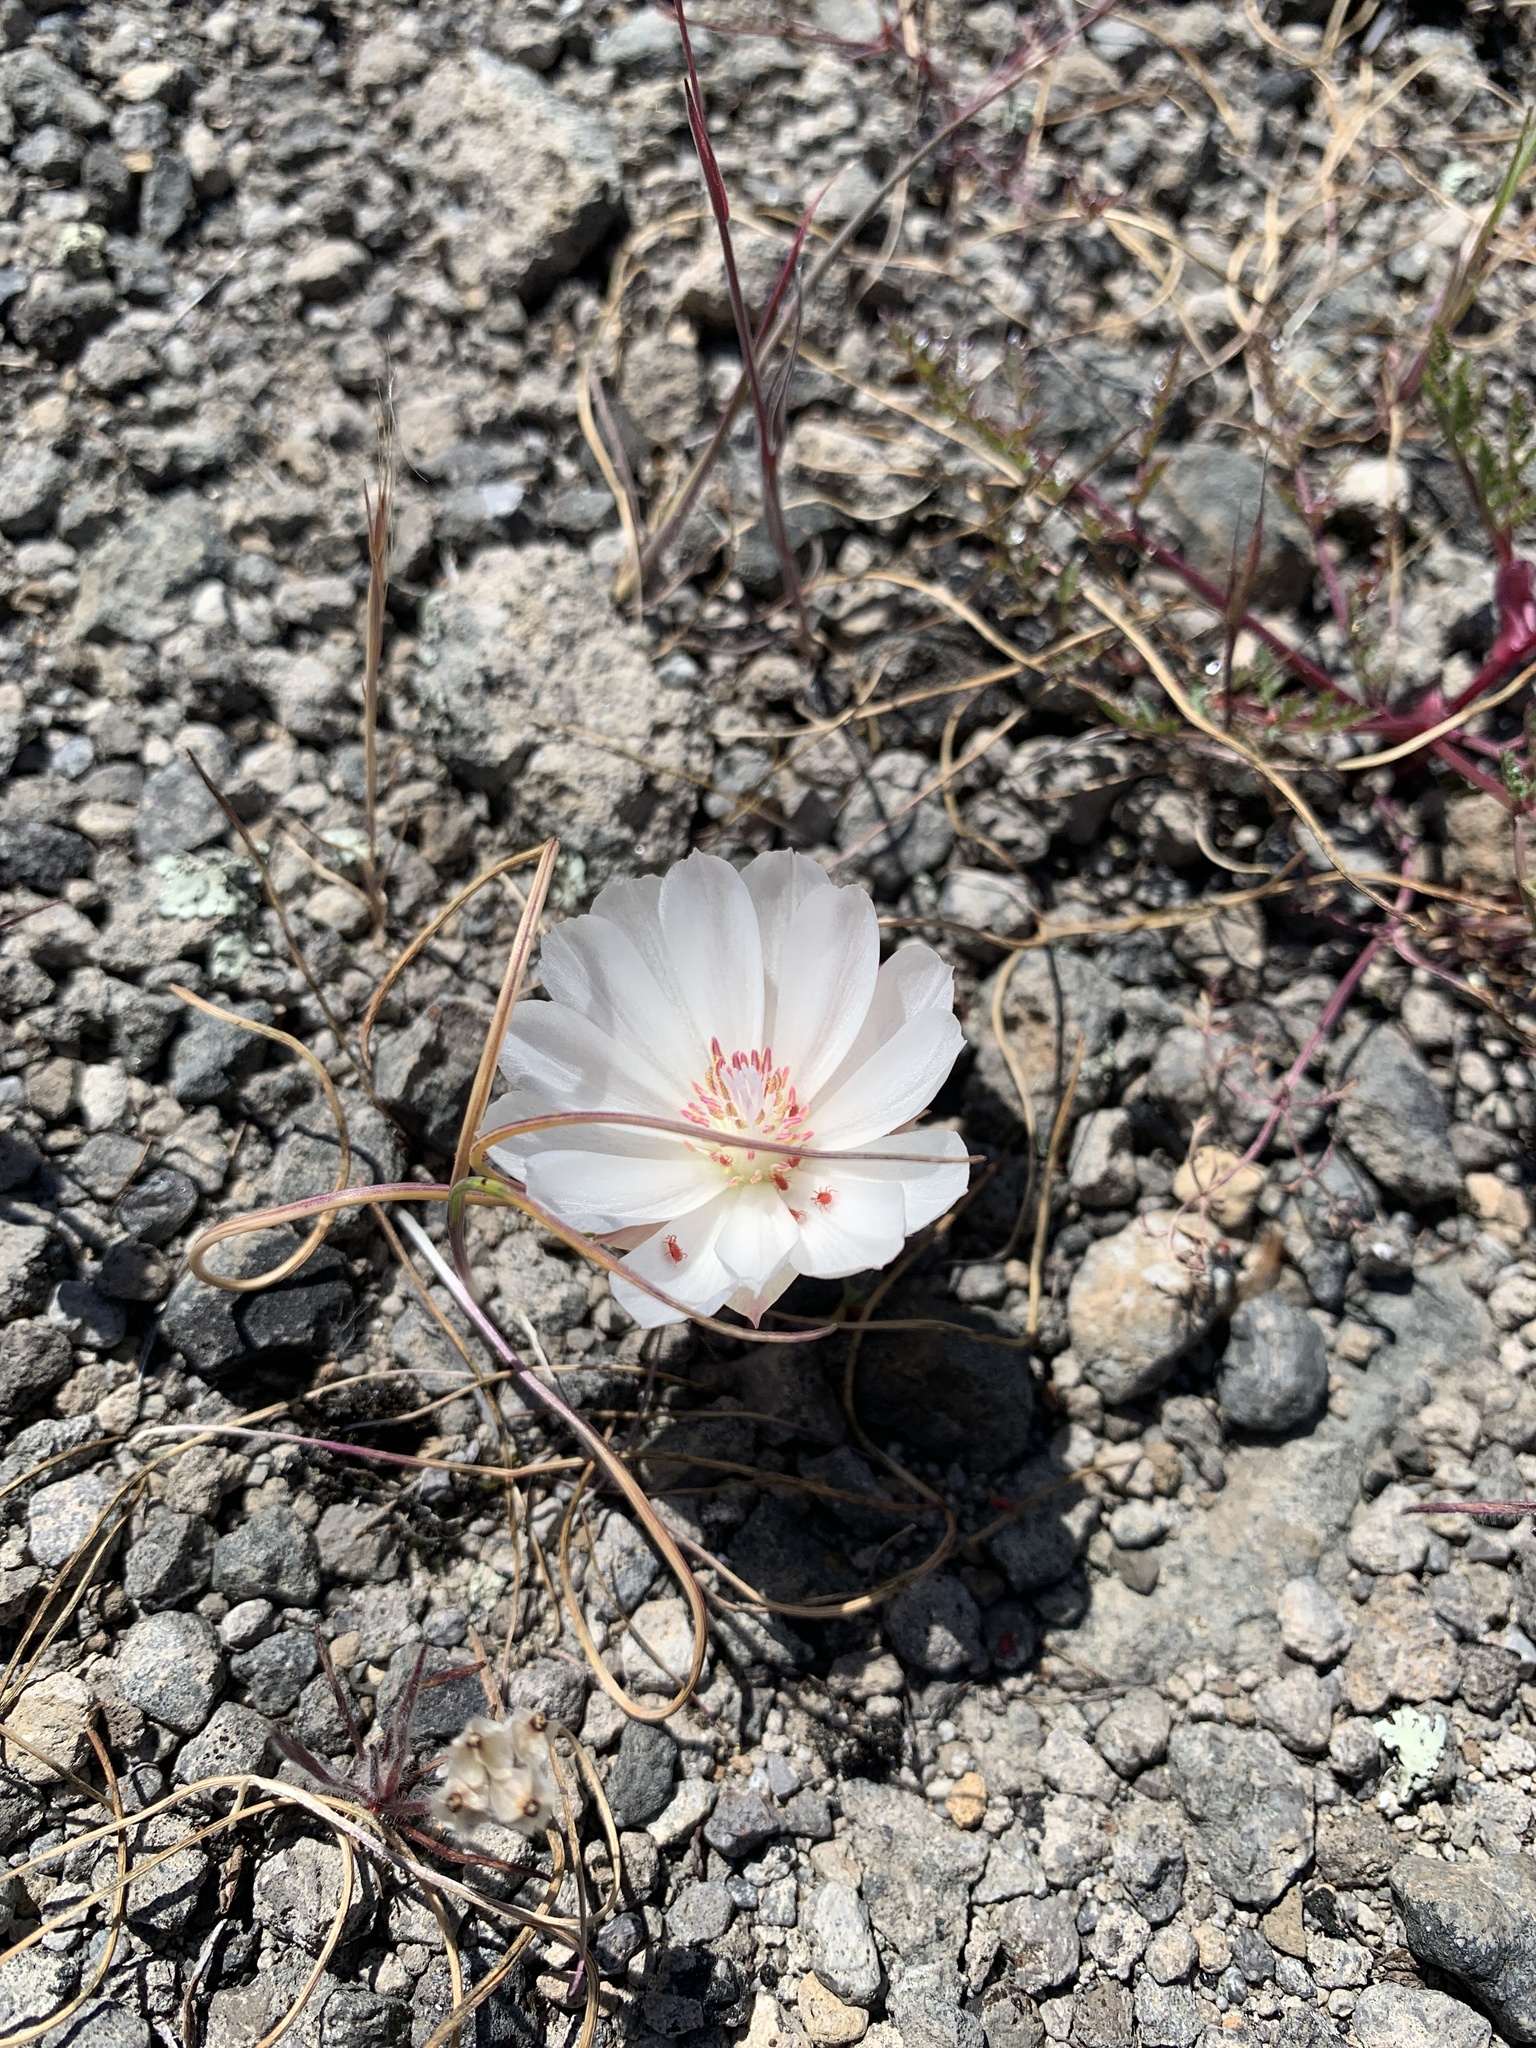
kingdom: Plantae
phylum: Tracheophyta
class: Magnoliopsida
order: Caryophyllales
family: Montiaceae
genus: Lewisia
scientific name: Lewisia rediviva
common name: Bitter-root
